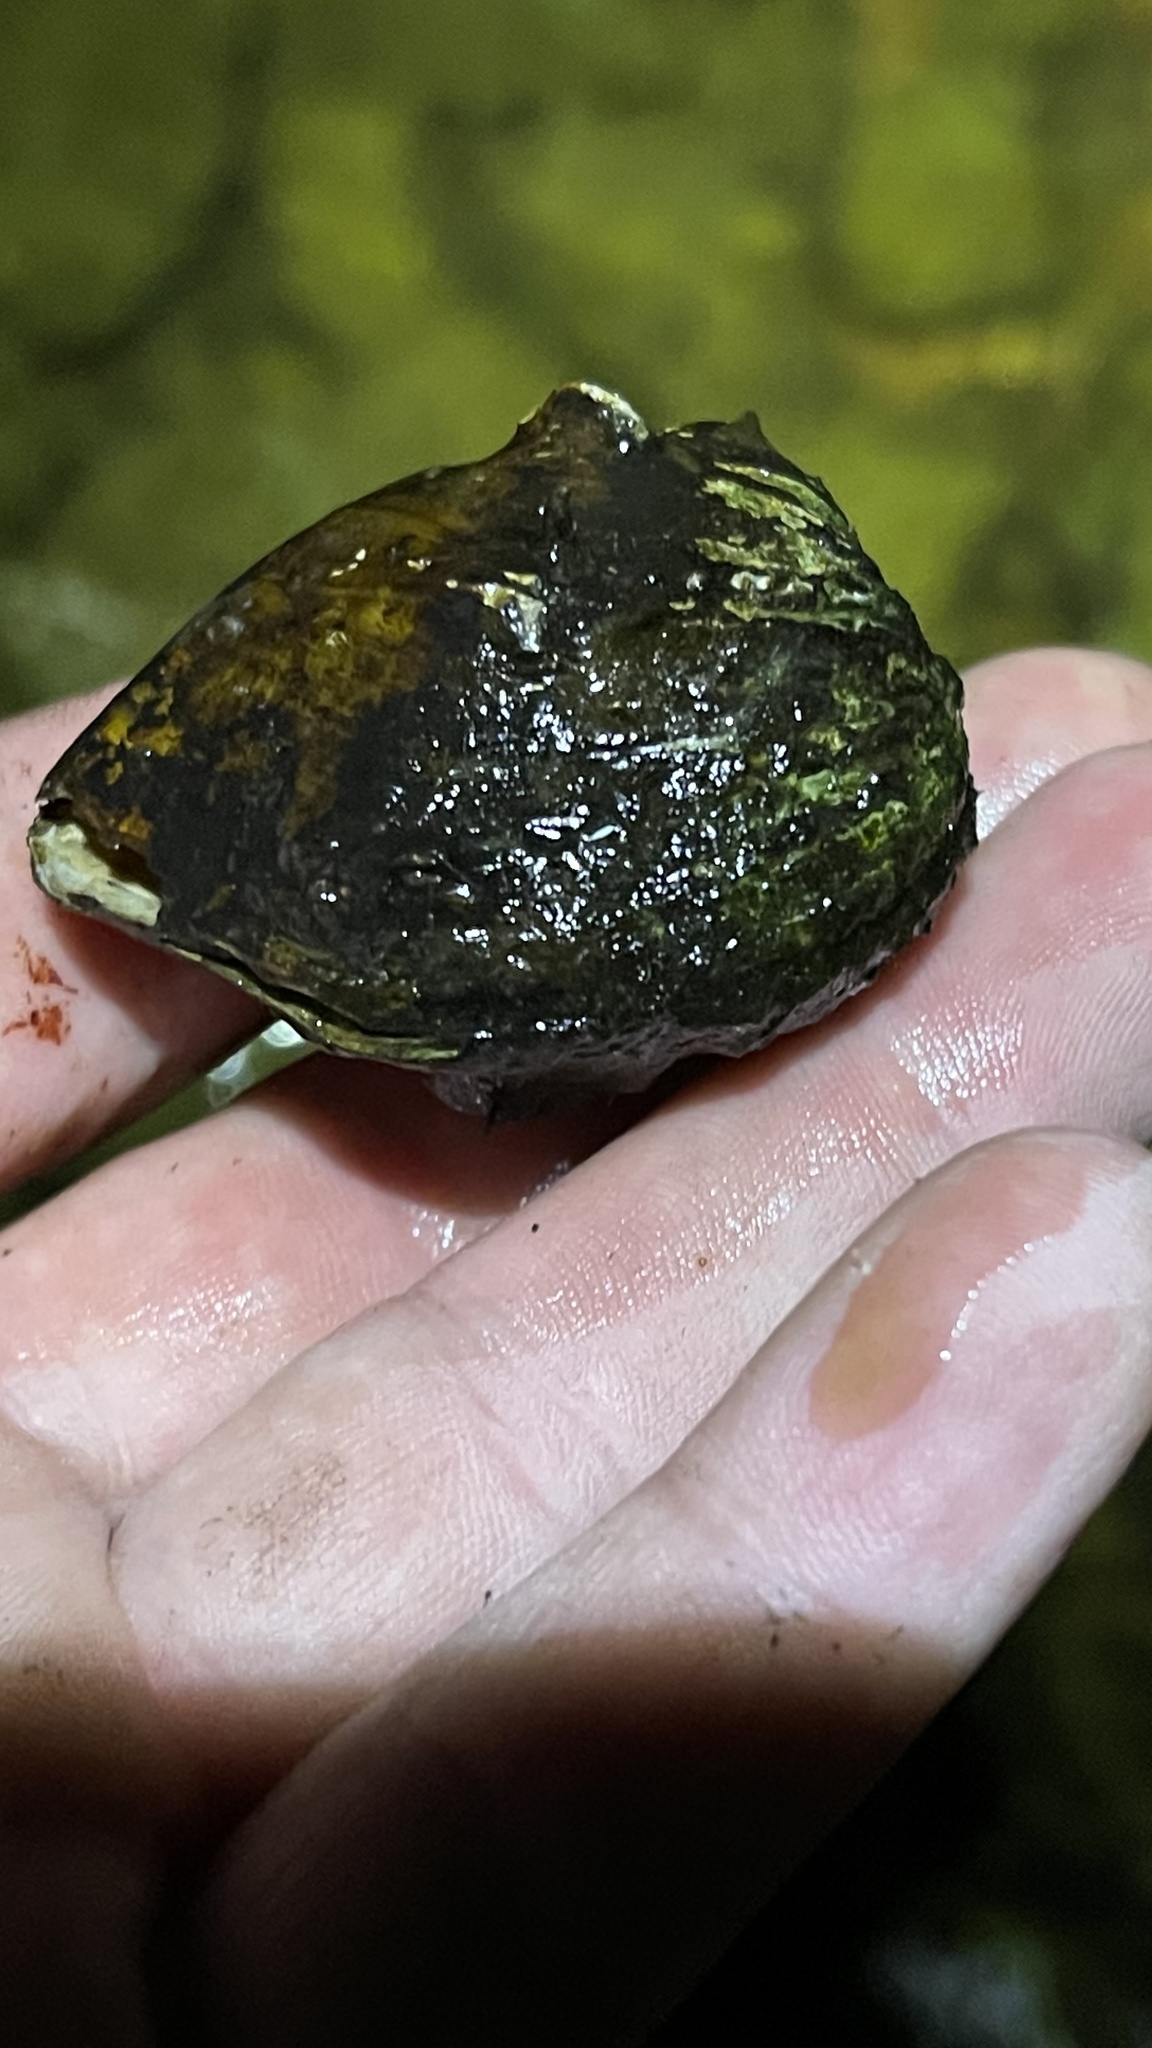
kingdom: Animalia
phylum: Mollusca
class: Bivalvia
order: Unionida
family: Unionidae
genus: Obliquaria
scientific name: Obliquaria reflexa
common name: Threehorn wartyback
